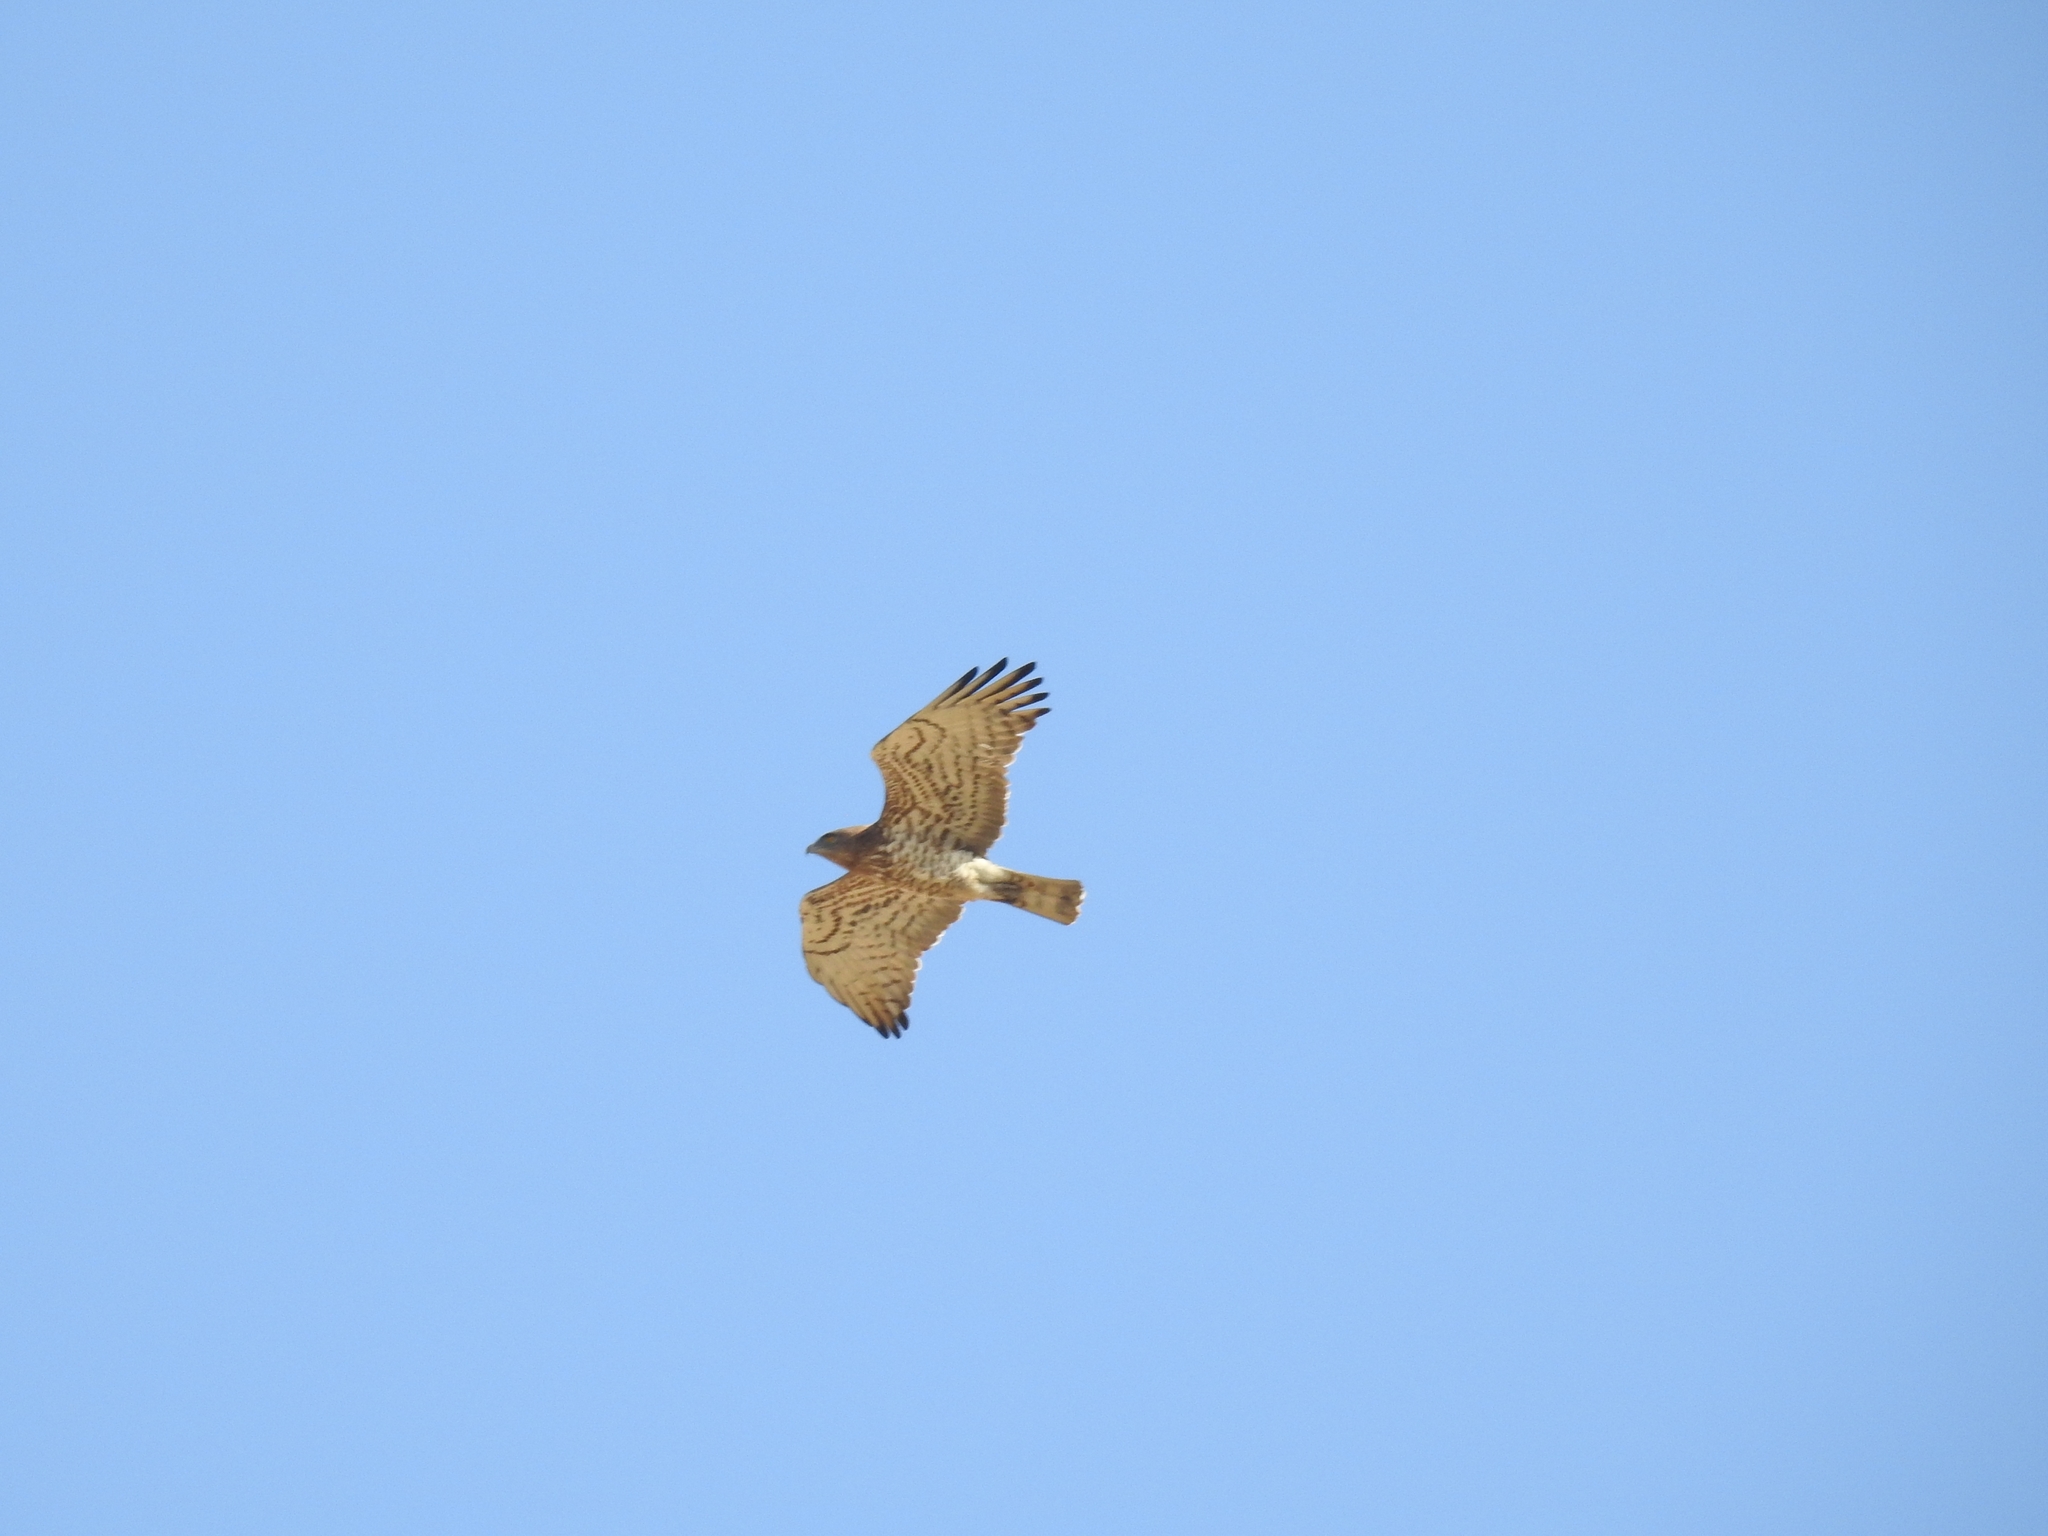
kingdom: Animalia
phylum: Chordata
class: Aves
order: Accipitriformes
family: Accipitridae
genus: Circaetus
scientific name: Circaetus gallicus
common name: Short-toed snake eagle
